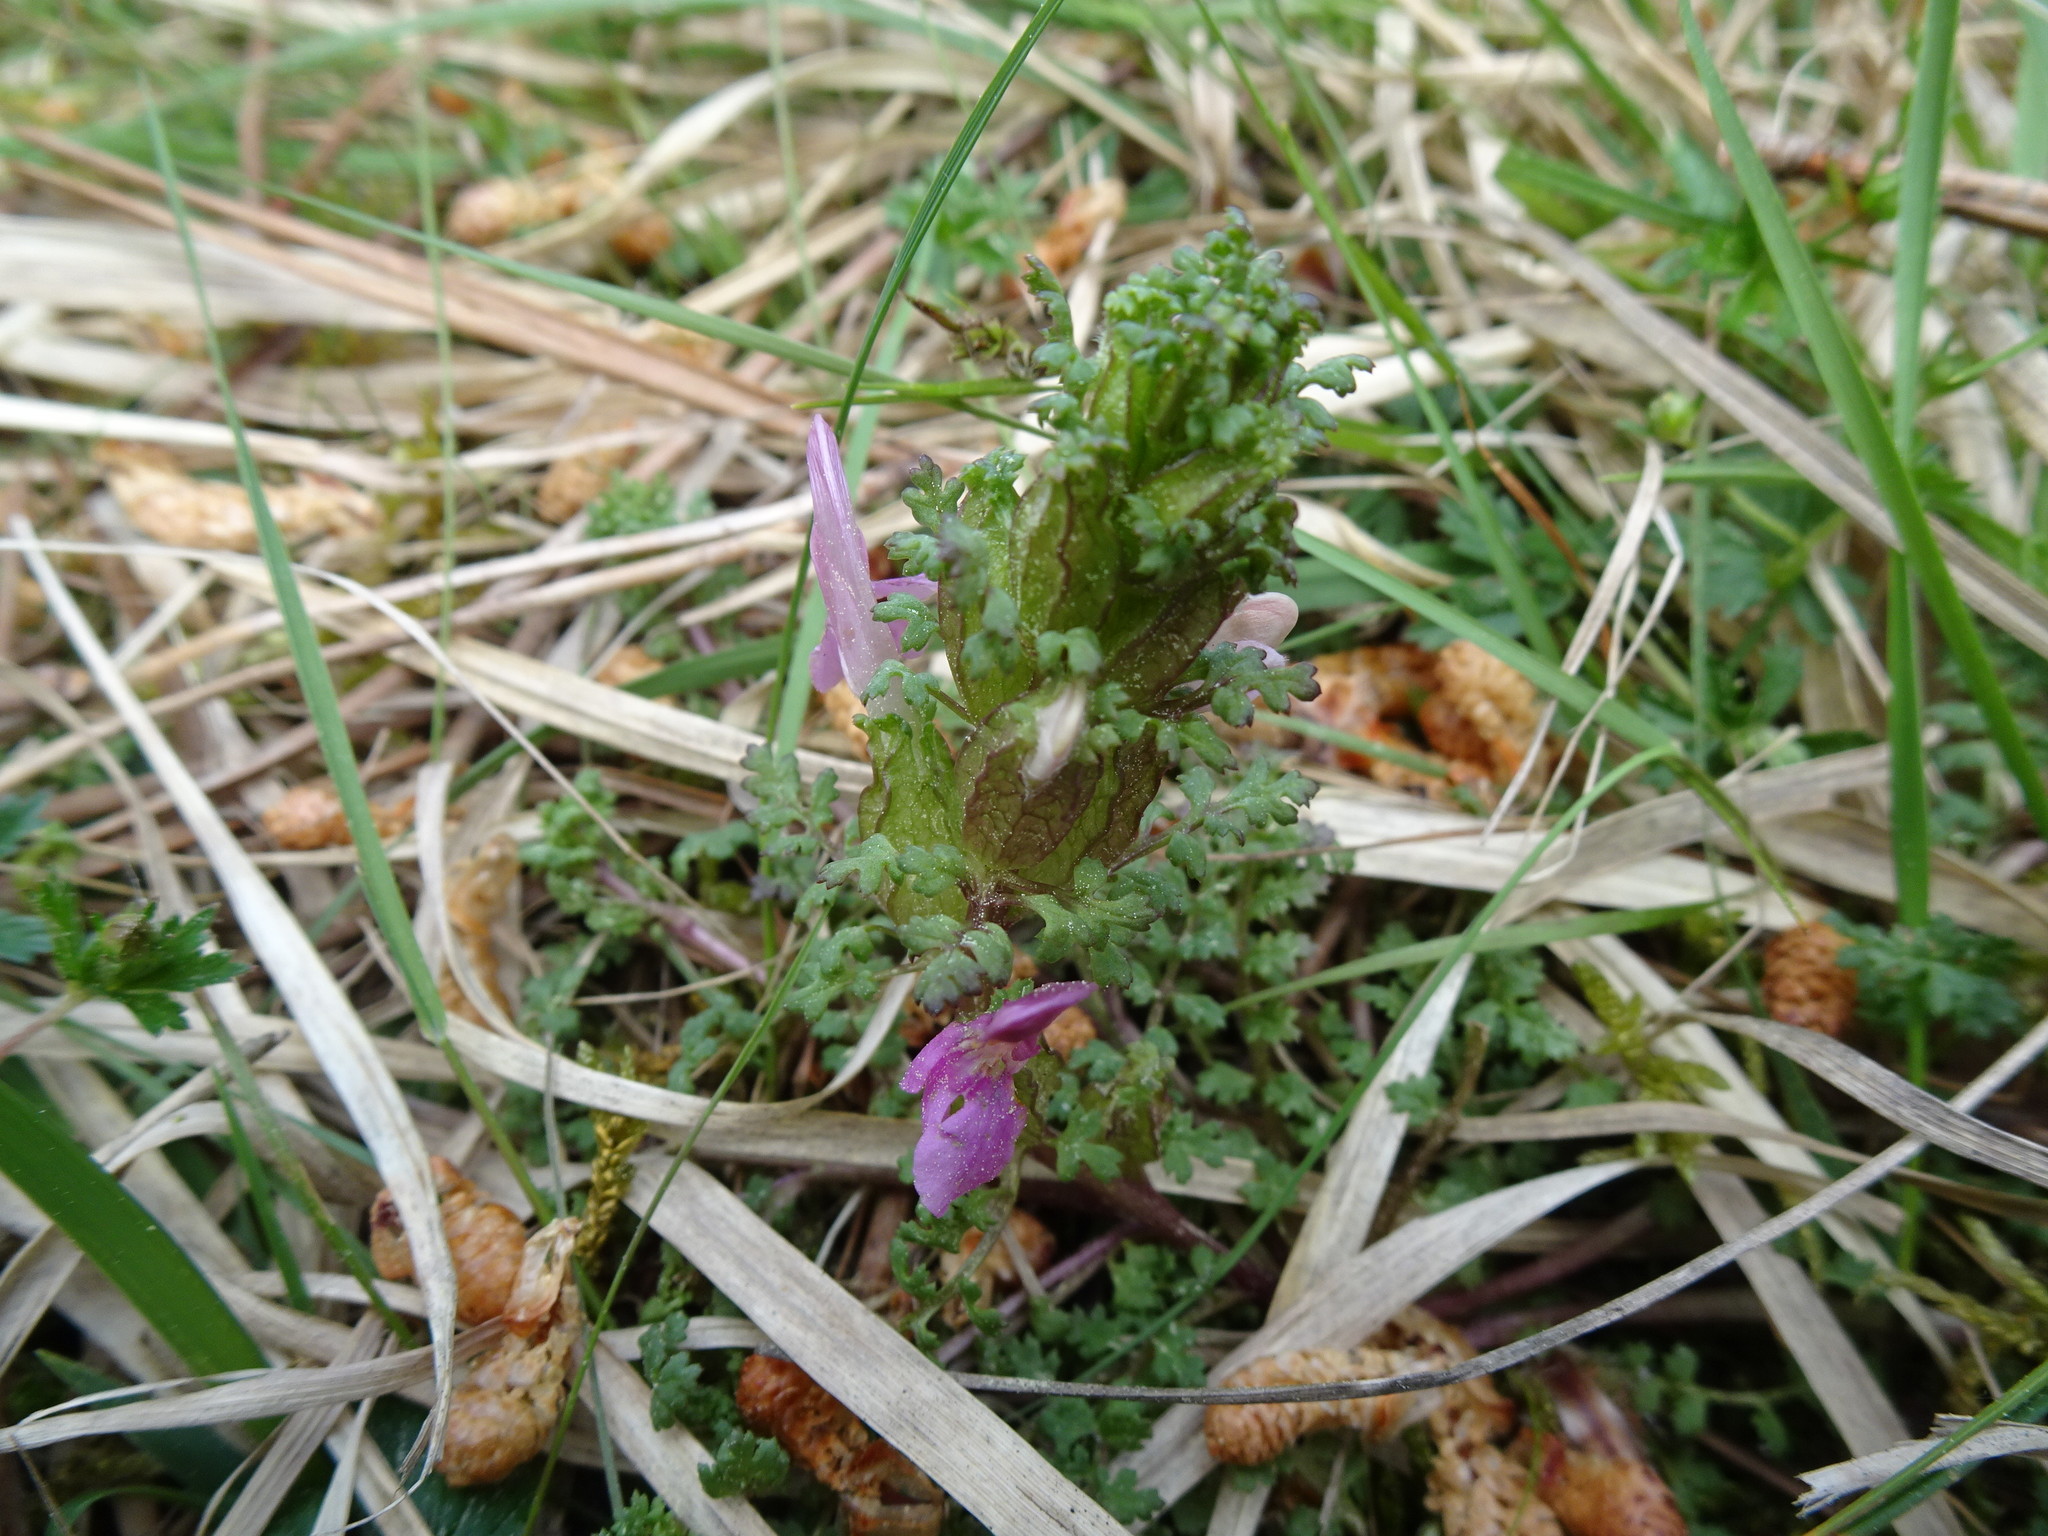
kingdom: Plantae
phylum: Tracheophyta
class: Magnoliopsida
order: Lamiales
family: Orobanchaceae
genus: Pedicularis
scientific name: Pedicularis sylvatica
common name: Lousewort
